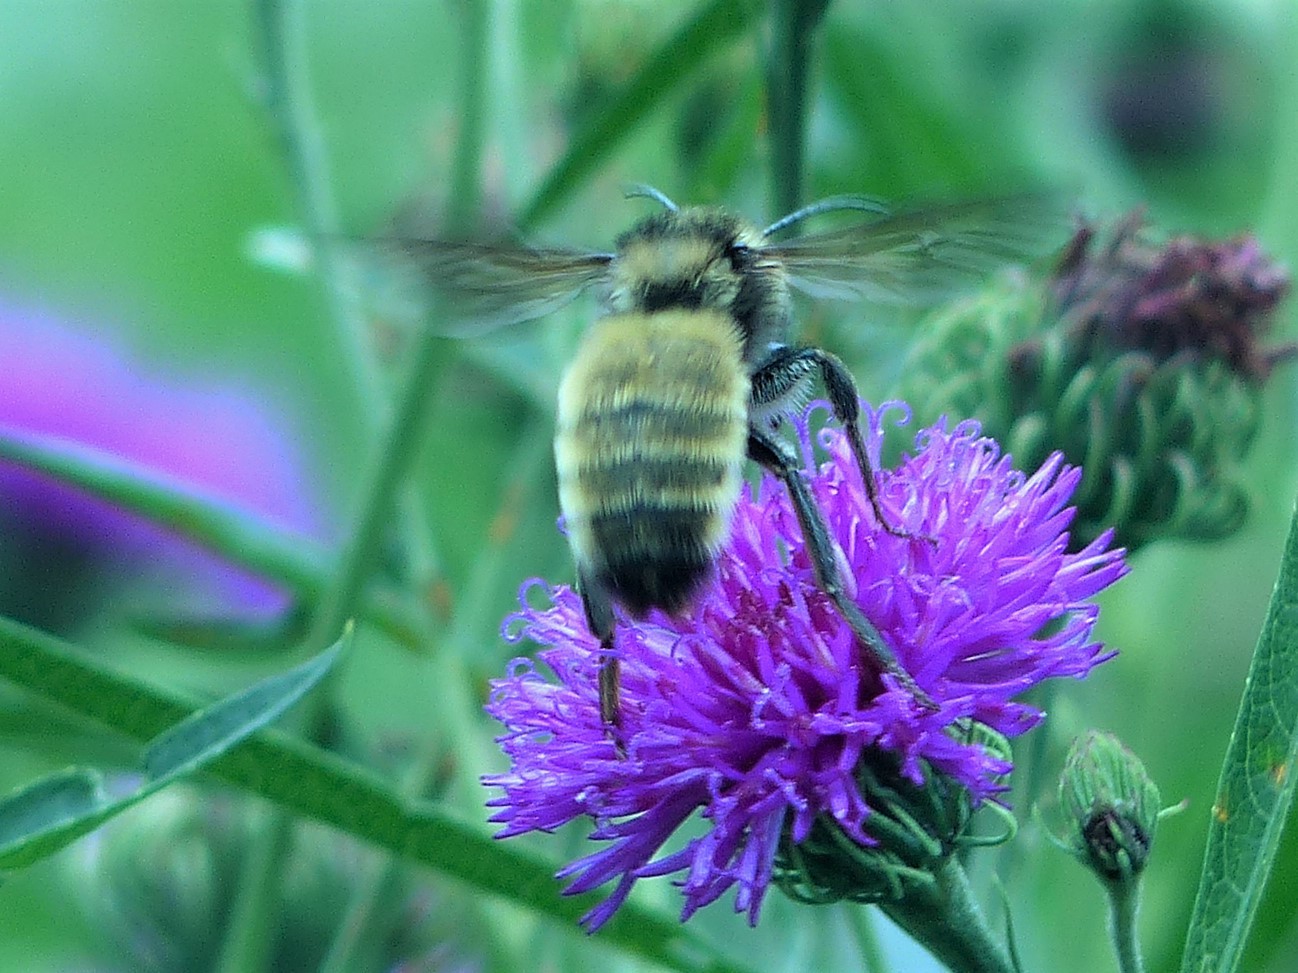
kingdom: Animalia
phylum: Arthropoda
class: Insecta
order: Hymenoptera
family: Apidae
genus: Bombus
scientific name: Bombus pensylvanicus
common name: Bumble bee
